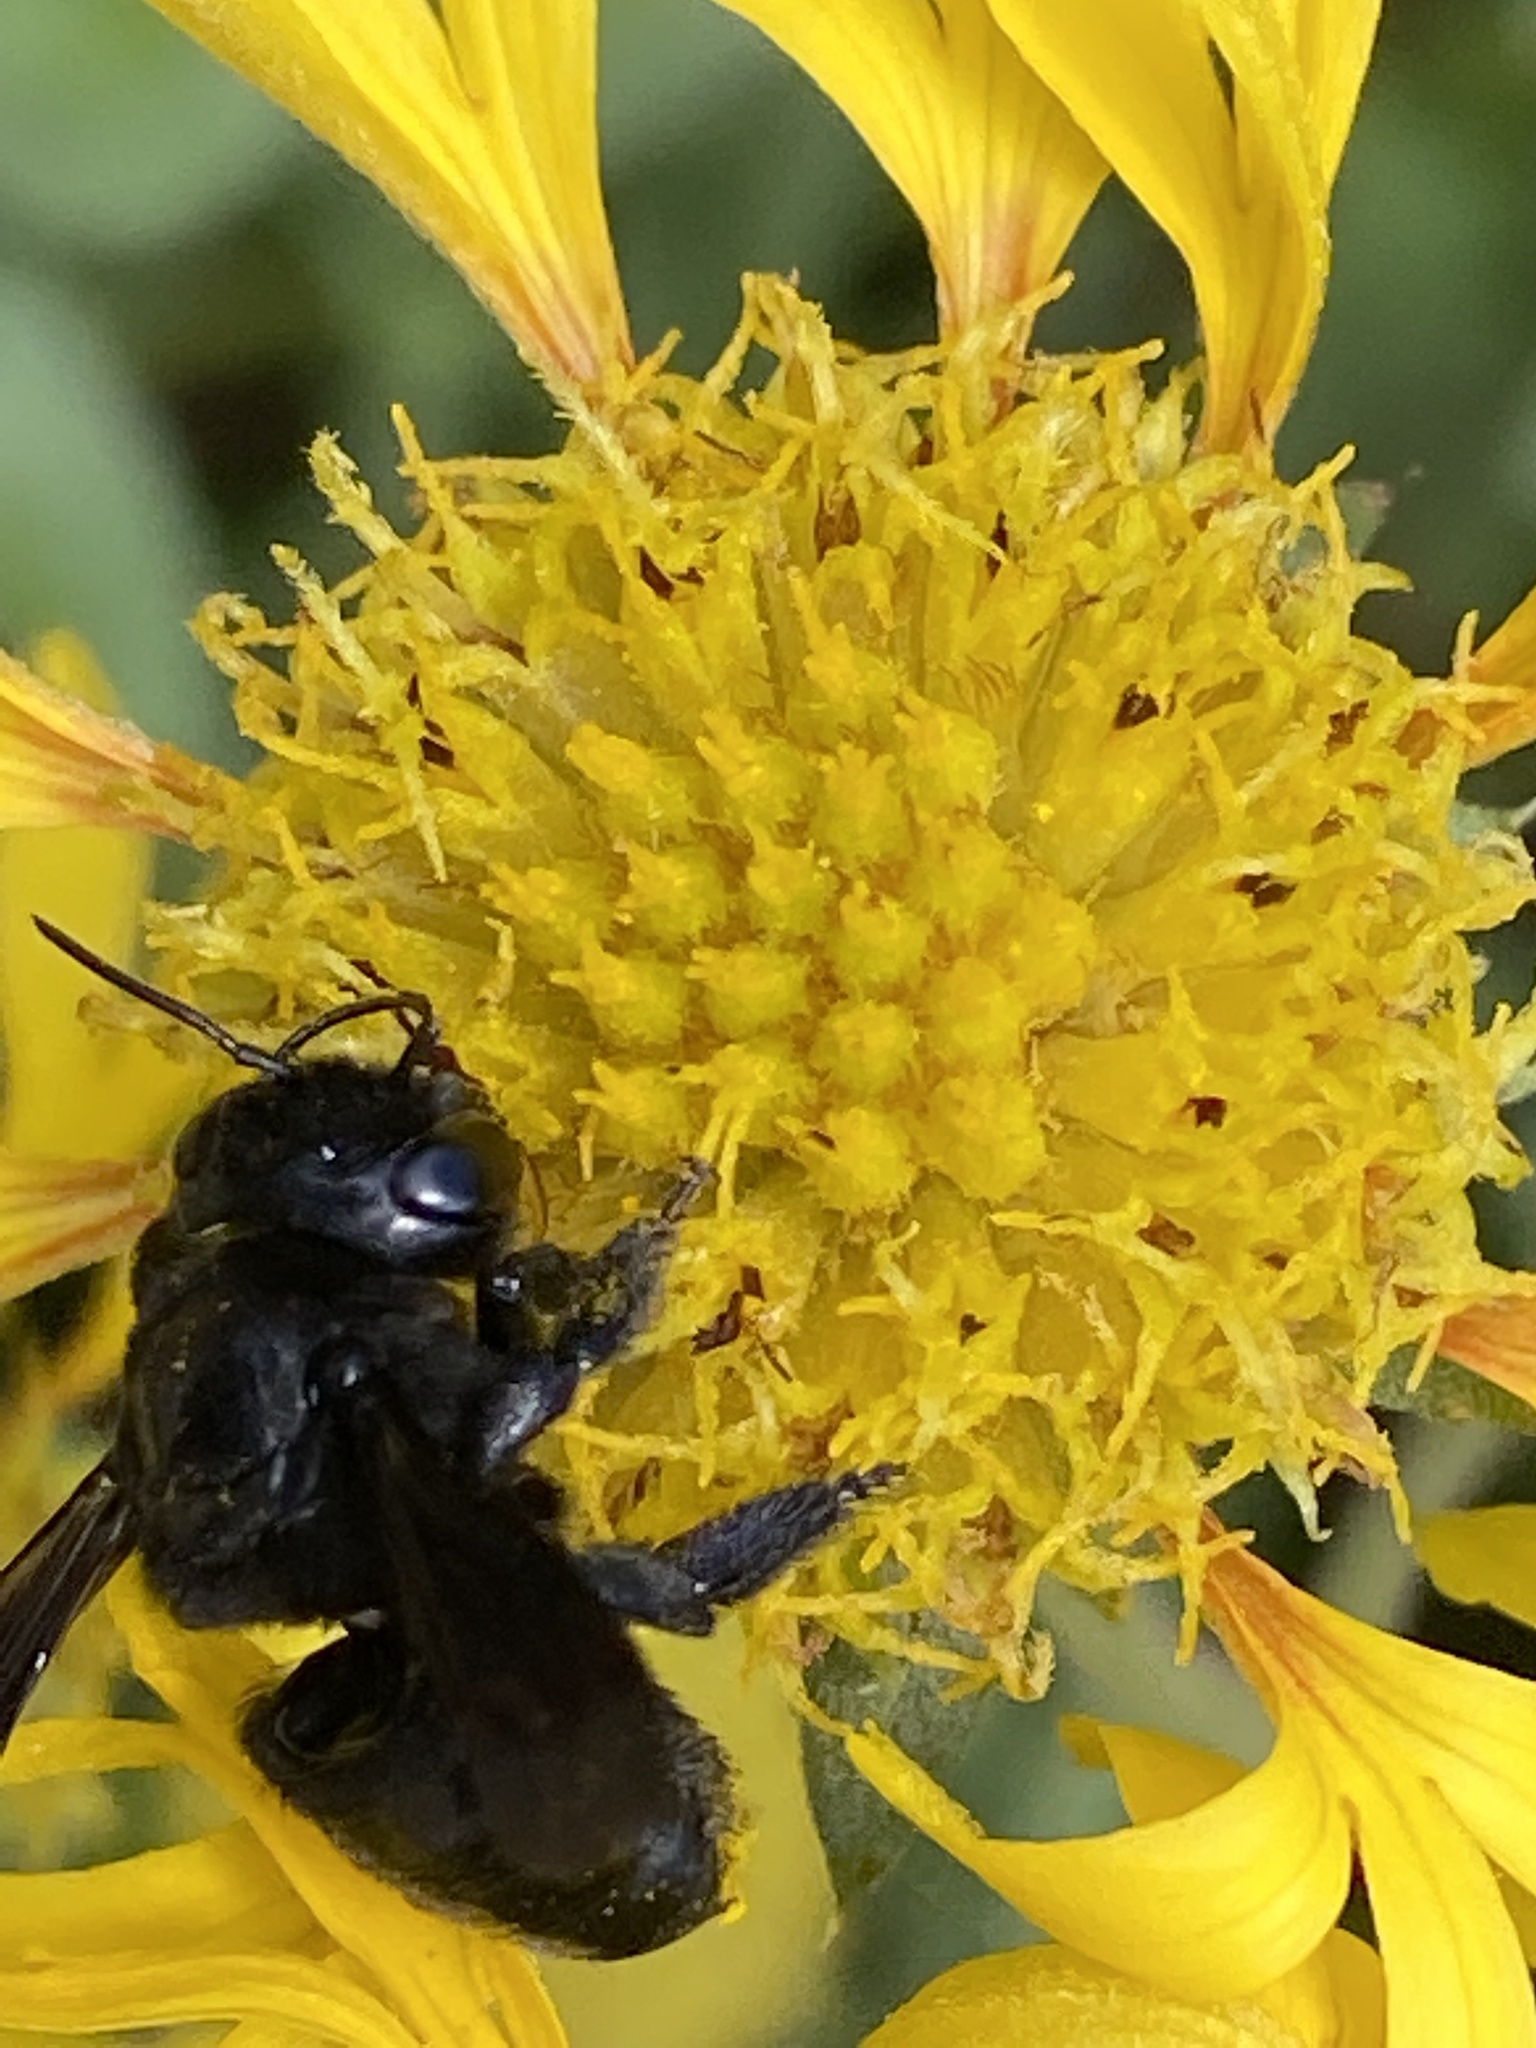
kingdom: Animalia
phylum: Arthropoda
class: Insecta
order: Hymenoptera
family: Megachilidae
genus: Megachile
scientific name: Megachile xylocopoides
